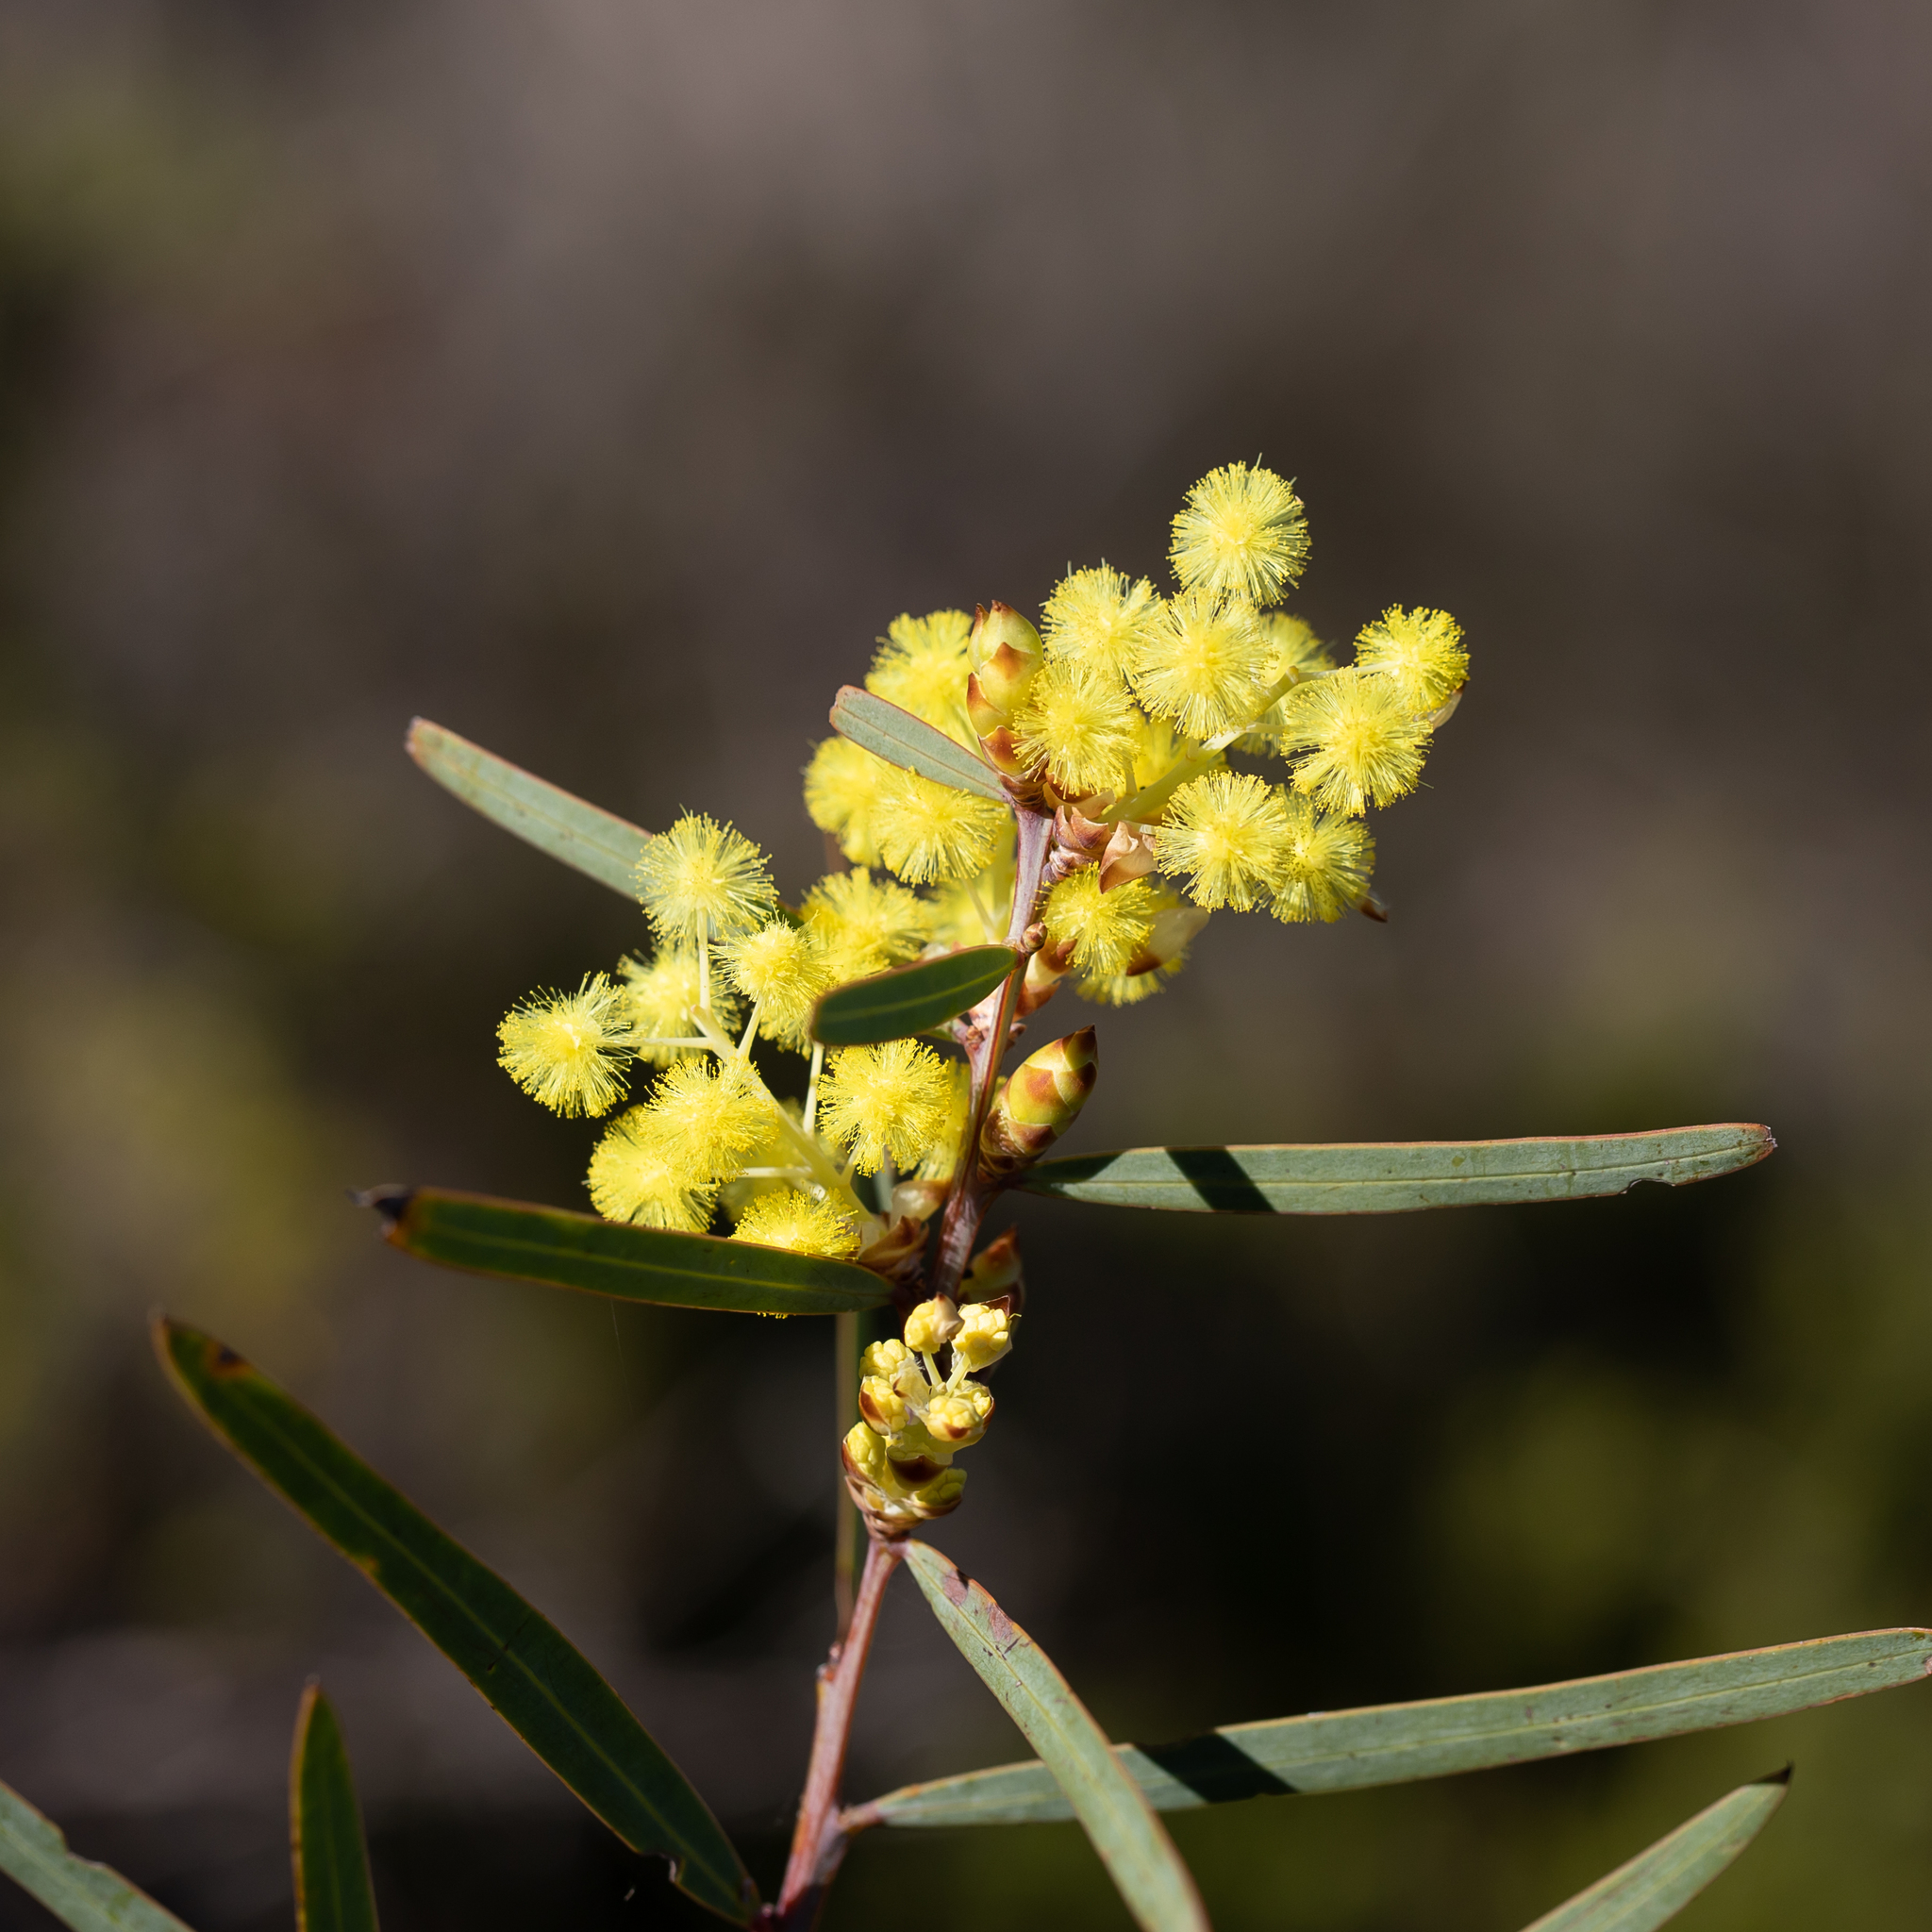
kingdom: Plantae
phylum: Tracheophyta
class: Magnoliopsida
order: Fabales
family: Fabaceae
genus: Acacia
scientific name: Acacia iteaphylla
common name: Flinders ranges wattle
